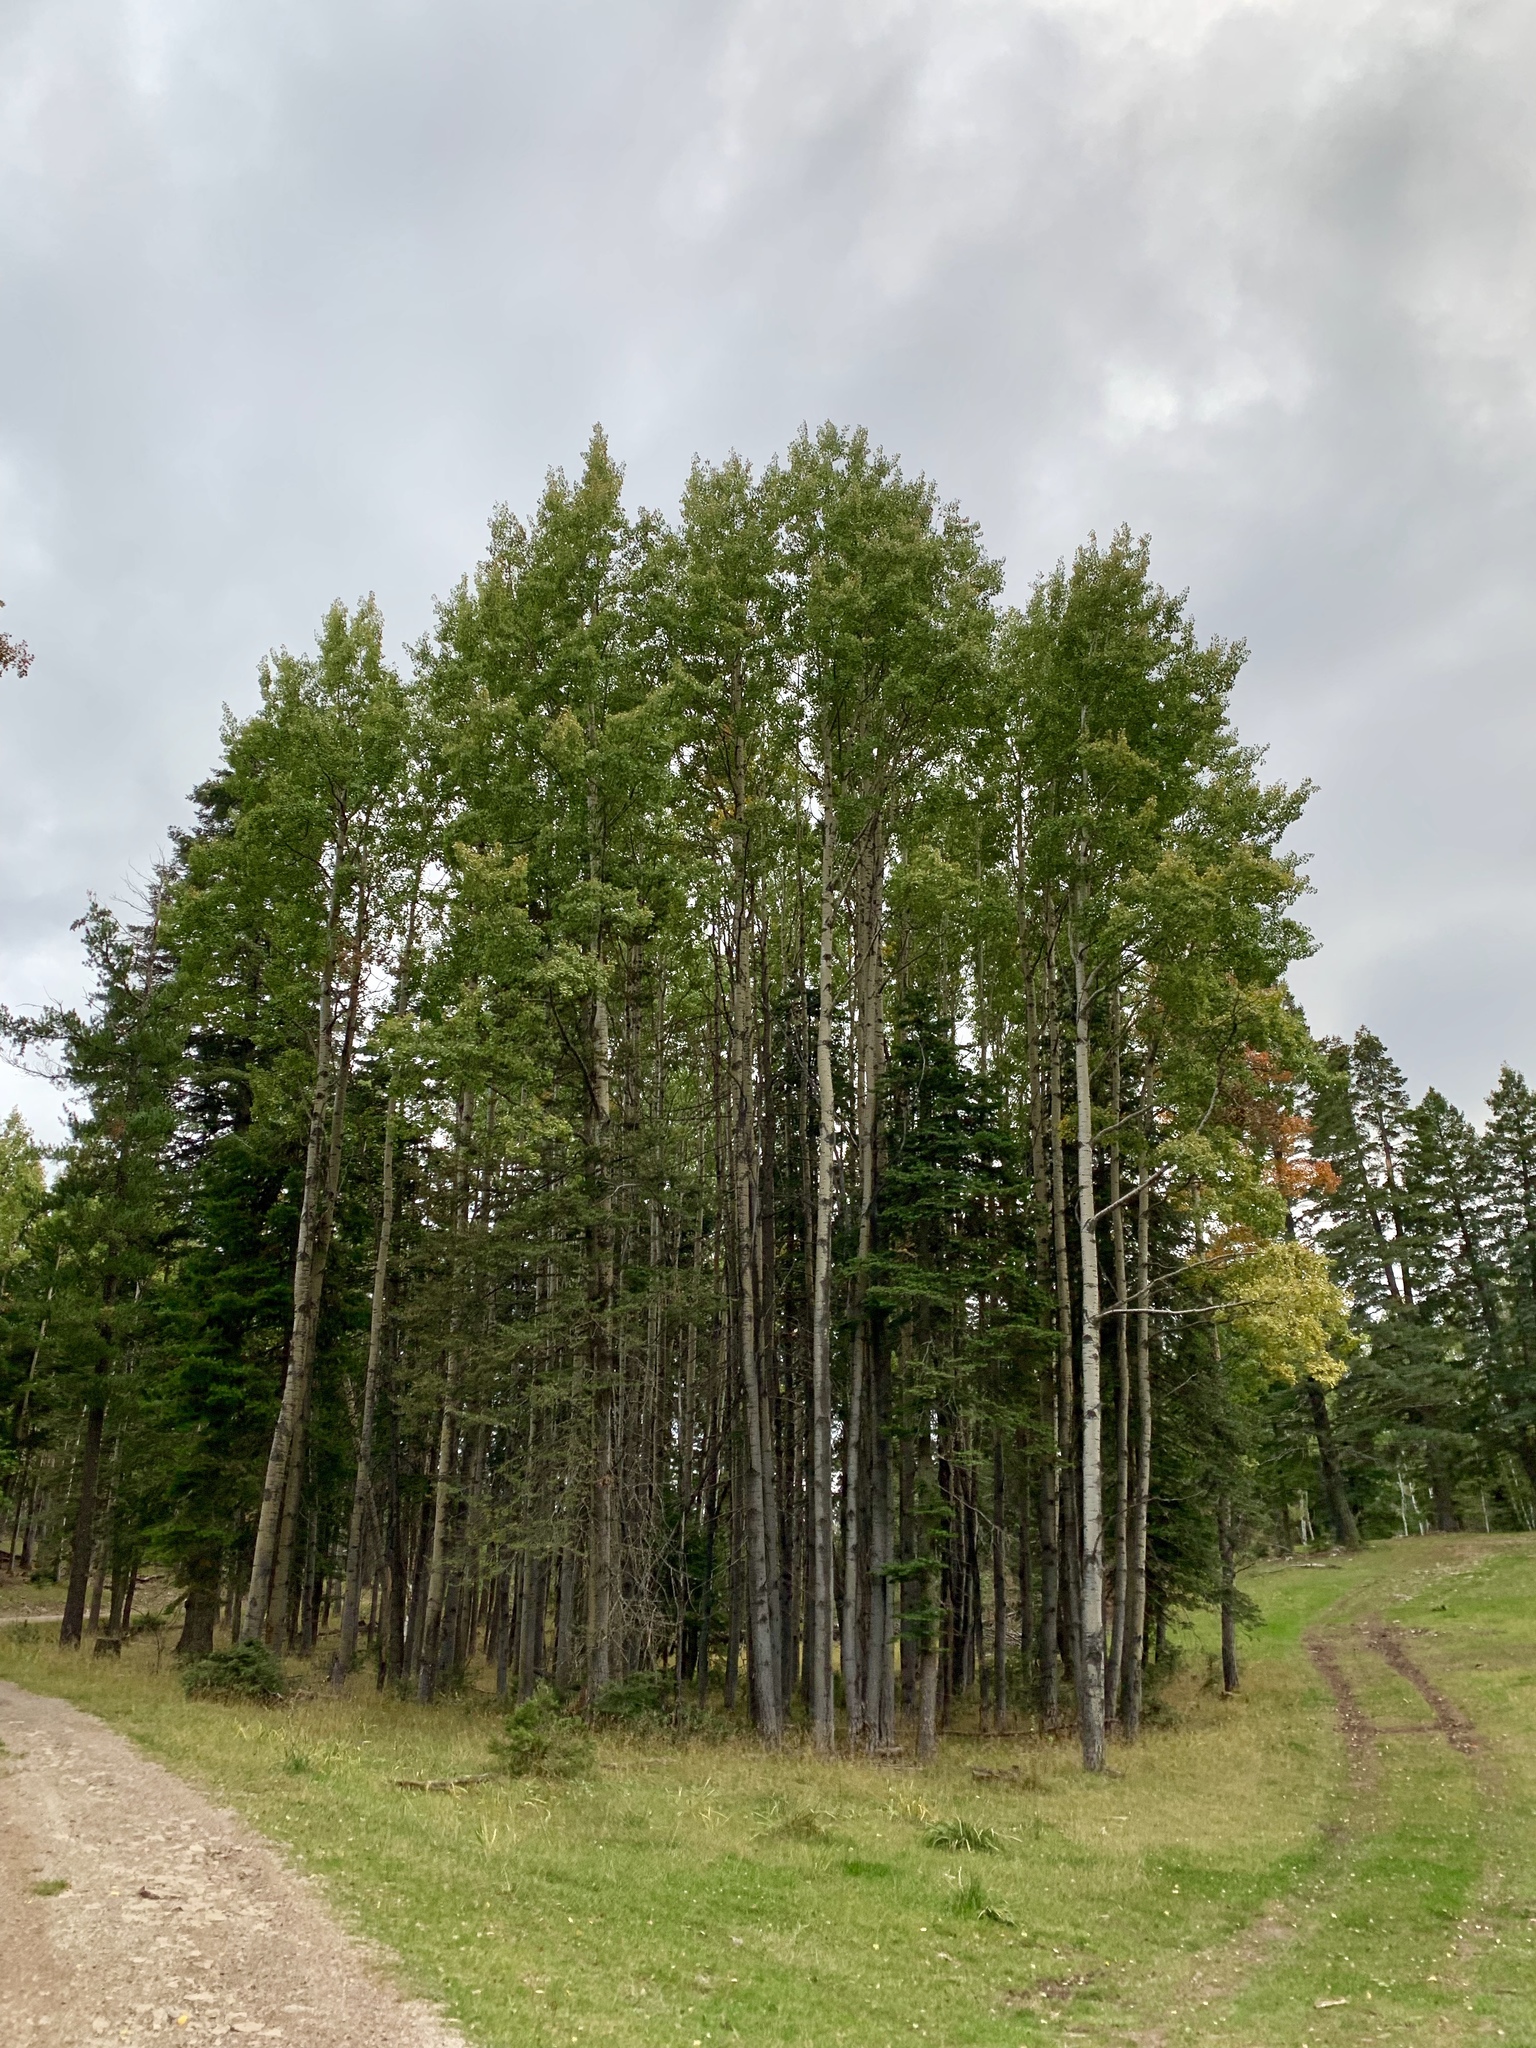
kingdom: Plantae
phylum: Tracheophyta
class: Magnoliopsida
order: Malpighiales
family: Salicaceae
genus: Populus
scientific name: Populus tremuloides
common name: Quaking aspen
